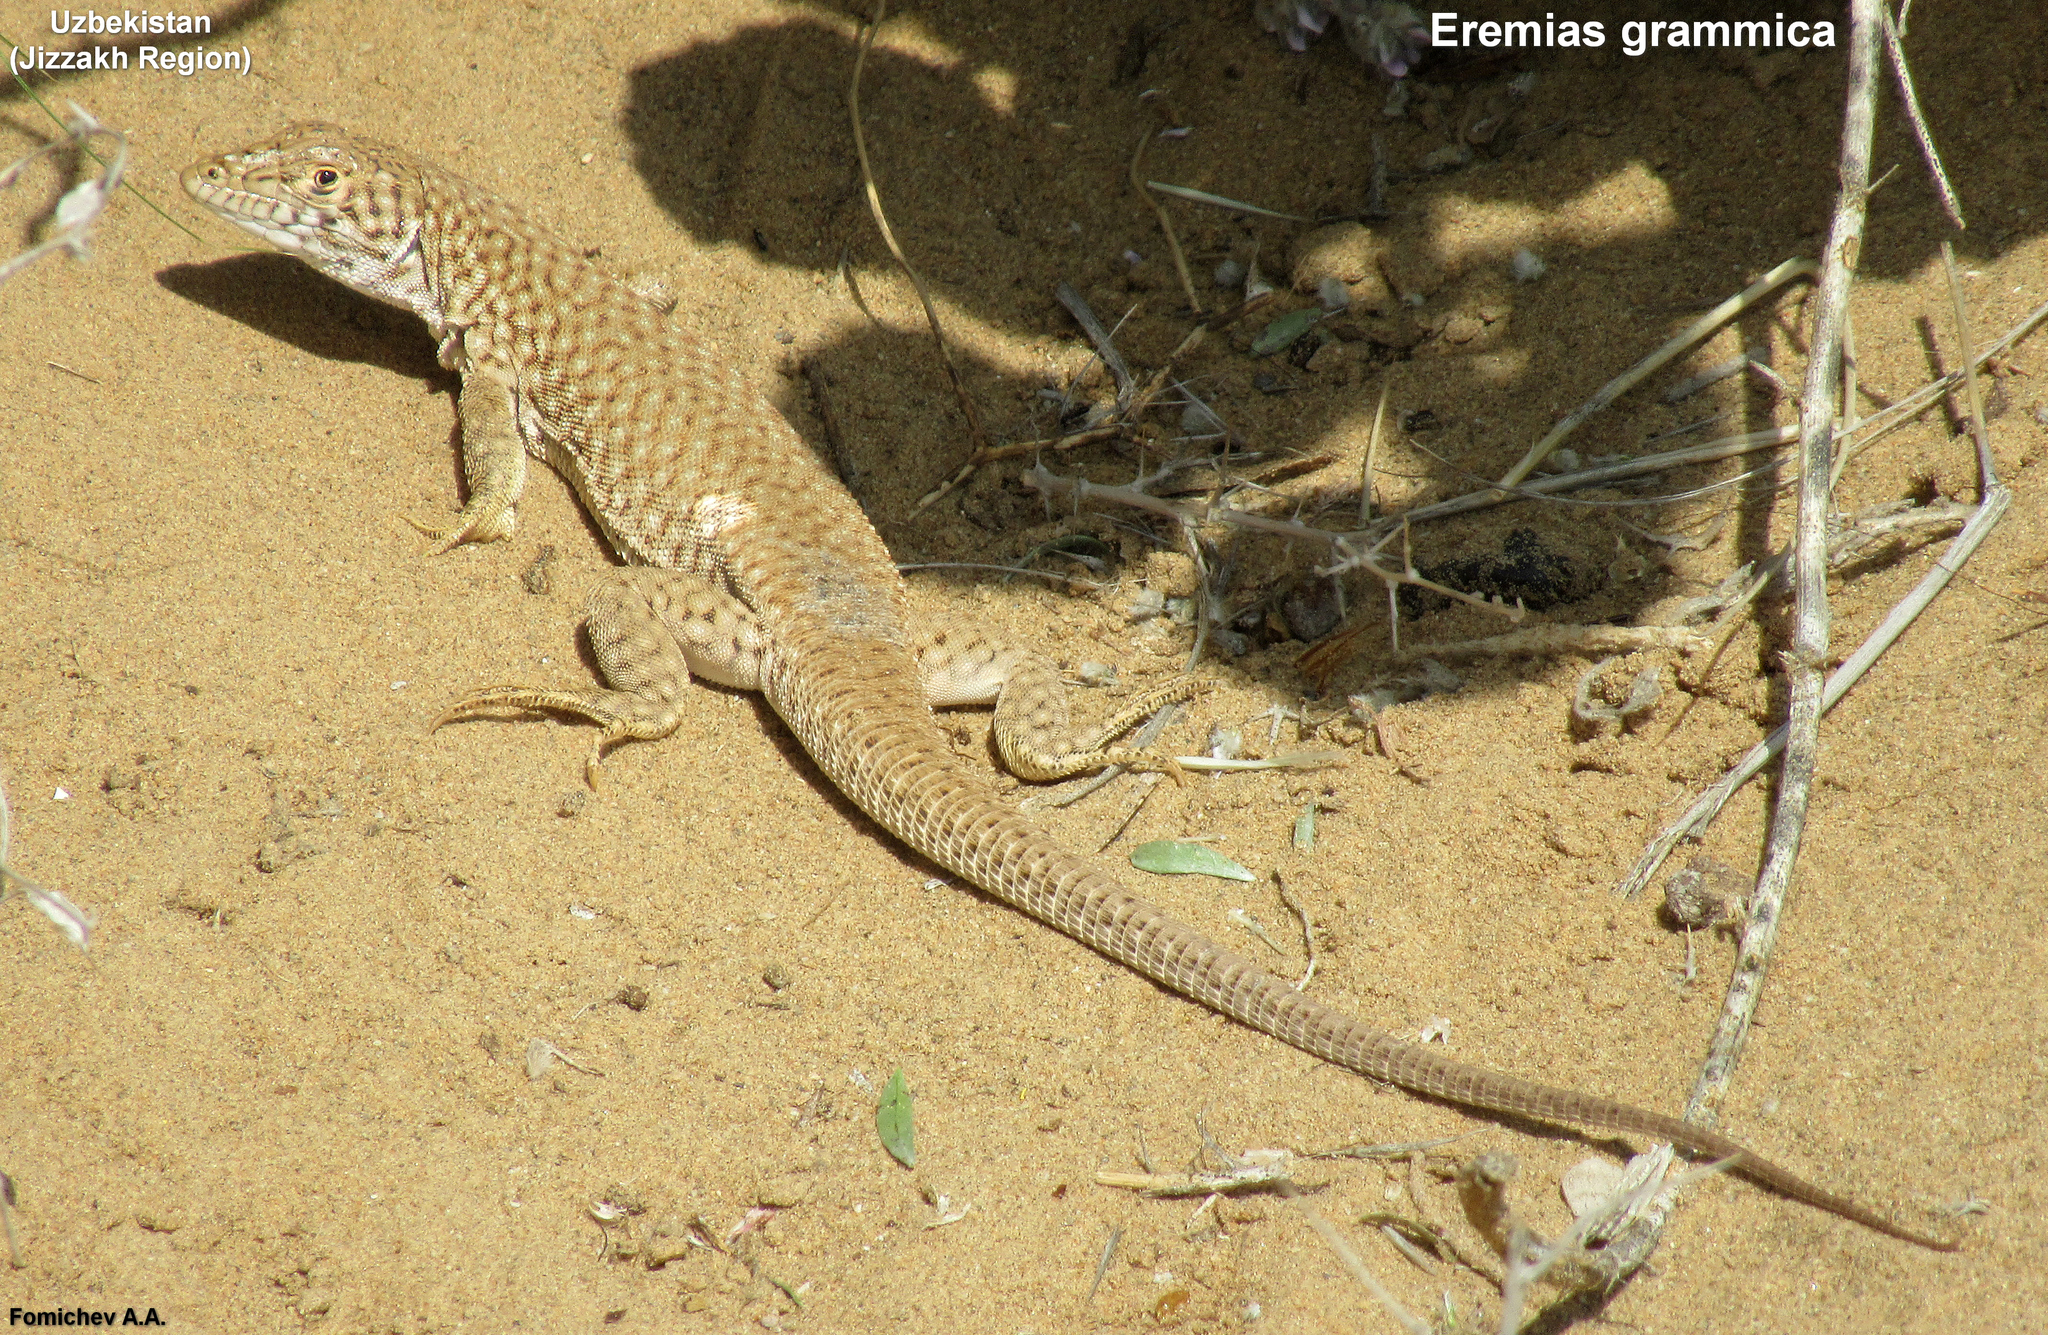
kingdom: Animalia
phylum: Chordata
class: Squamata
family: Lacertidae
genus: Eremias
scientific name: Eremias grammica
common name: Reticulate racerunner
